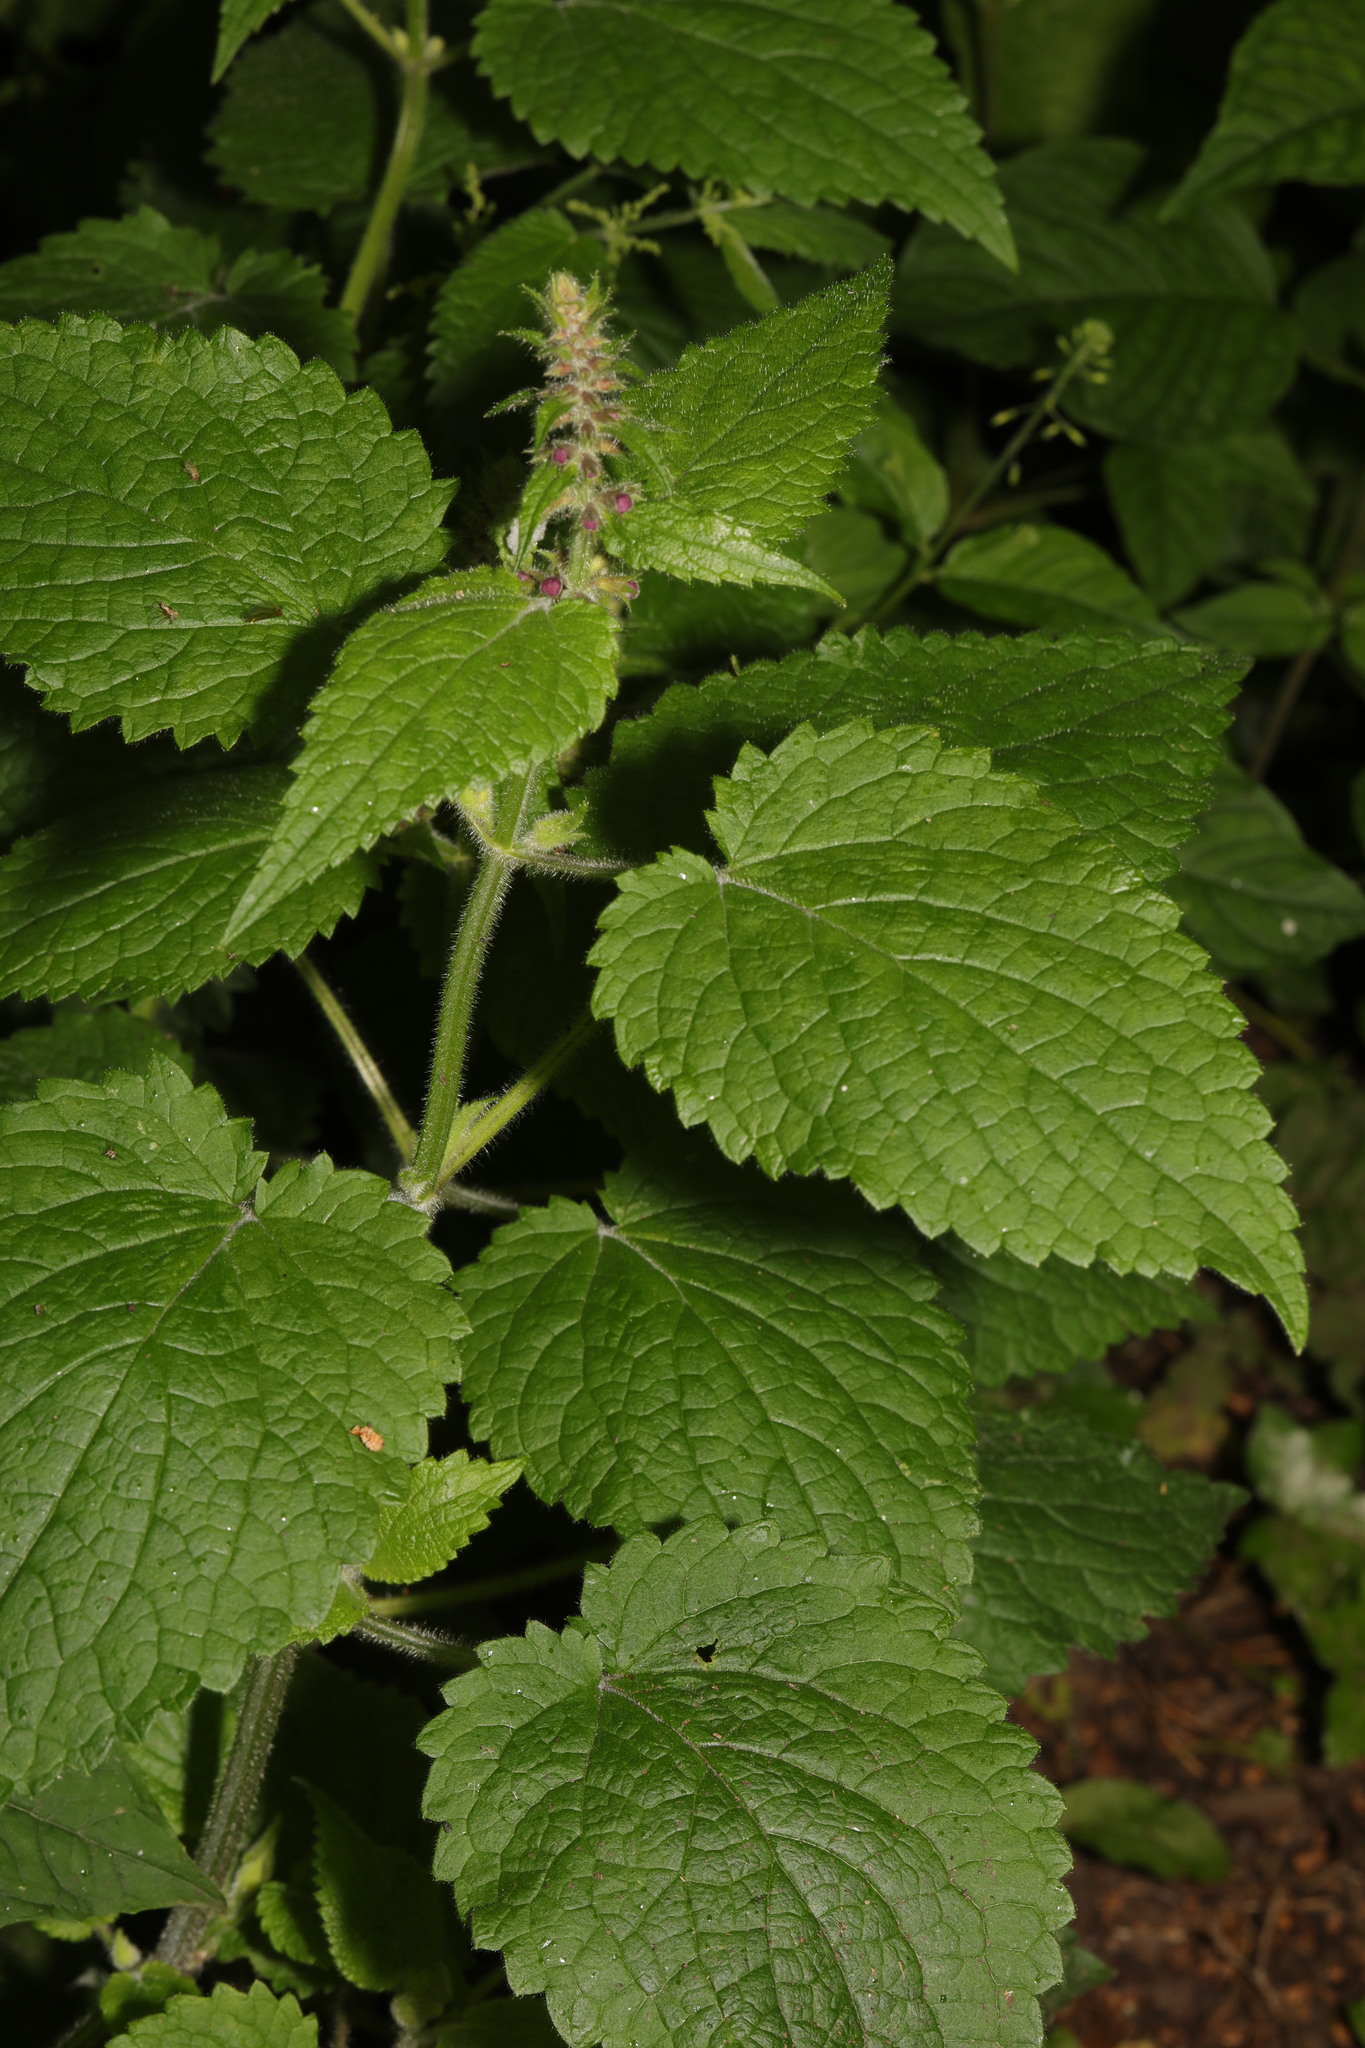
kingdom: Plantae
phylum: Tracheophyta
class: Magnoliopsida
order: Lamiales
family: Lamiaceae
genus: Stachys
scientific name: Stachys sylvatica
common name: Hedge woundwort
